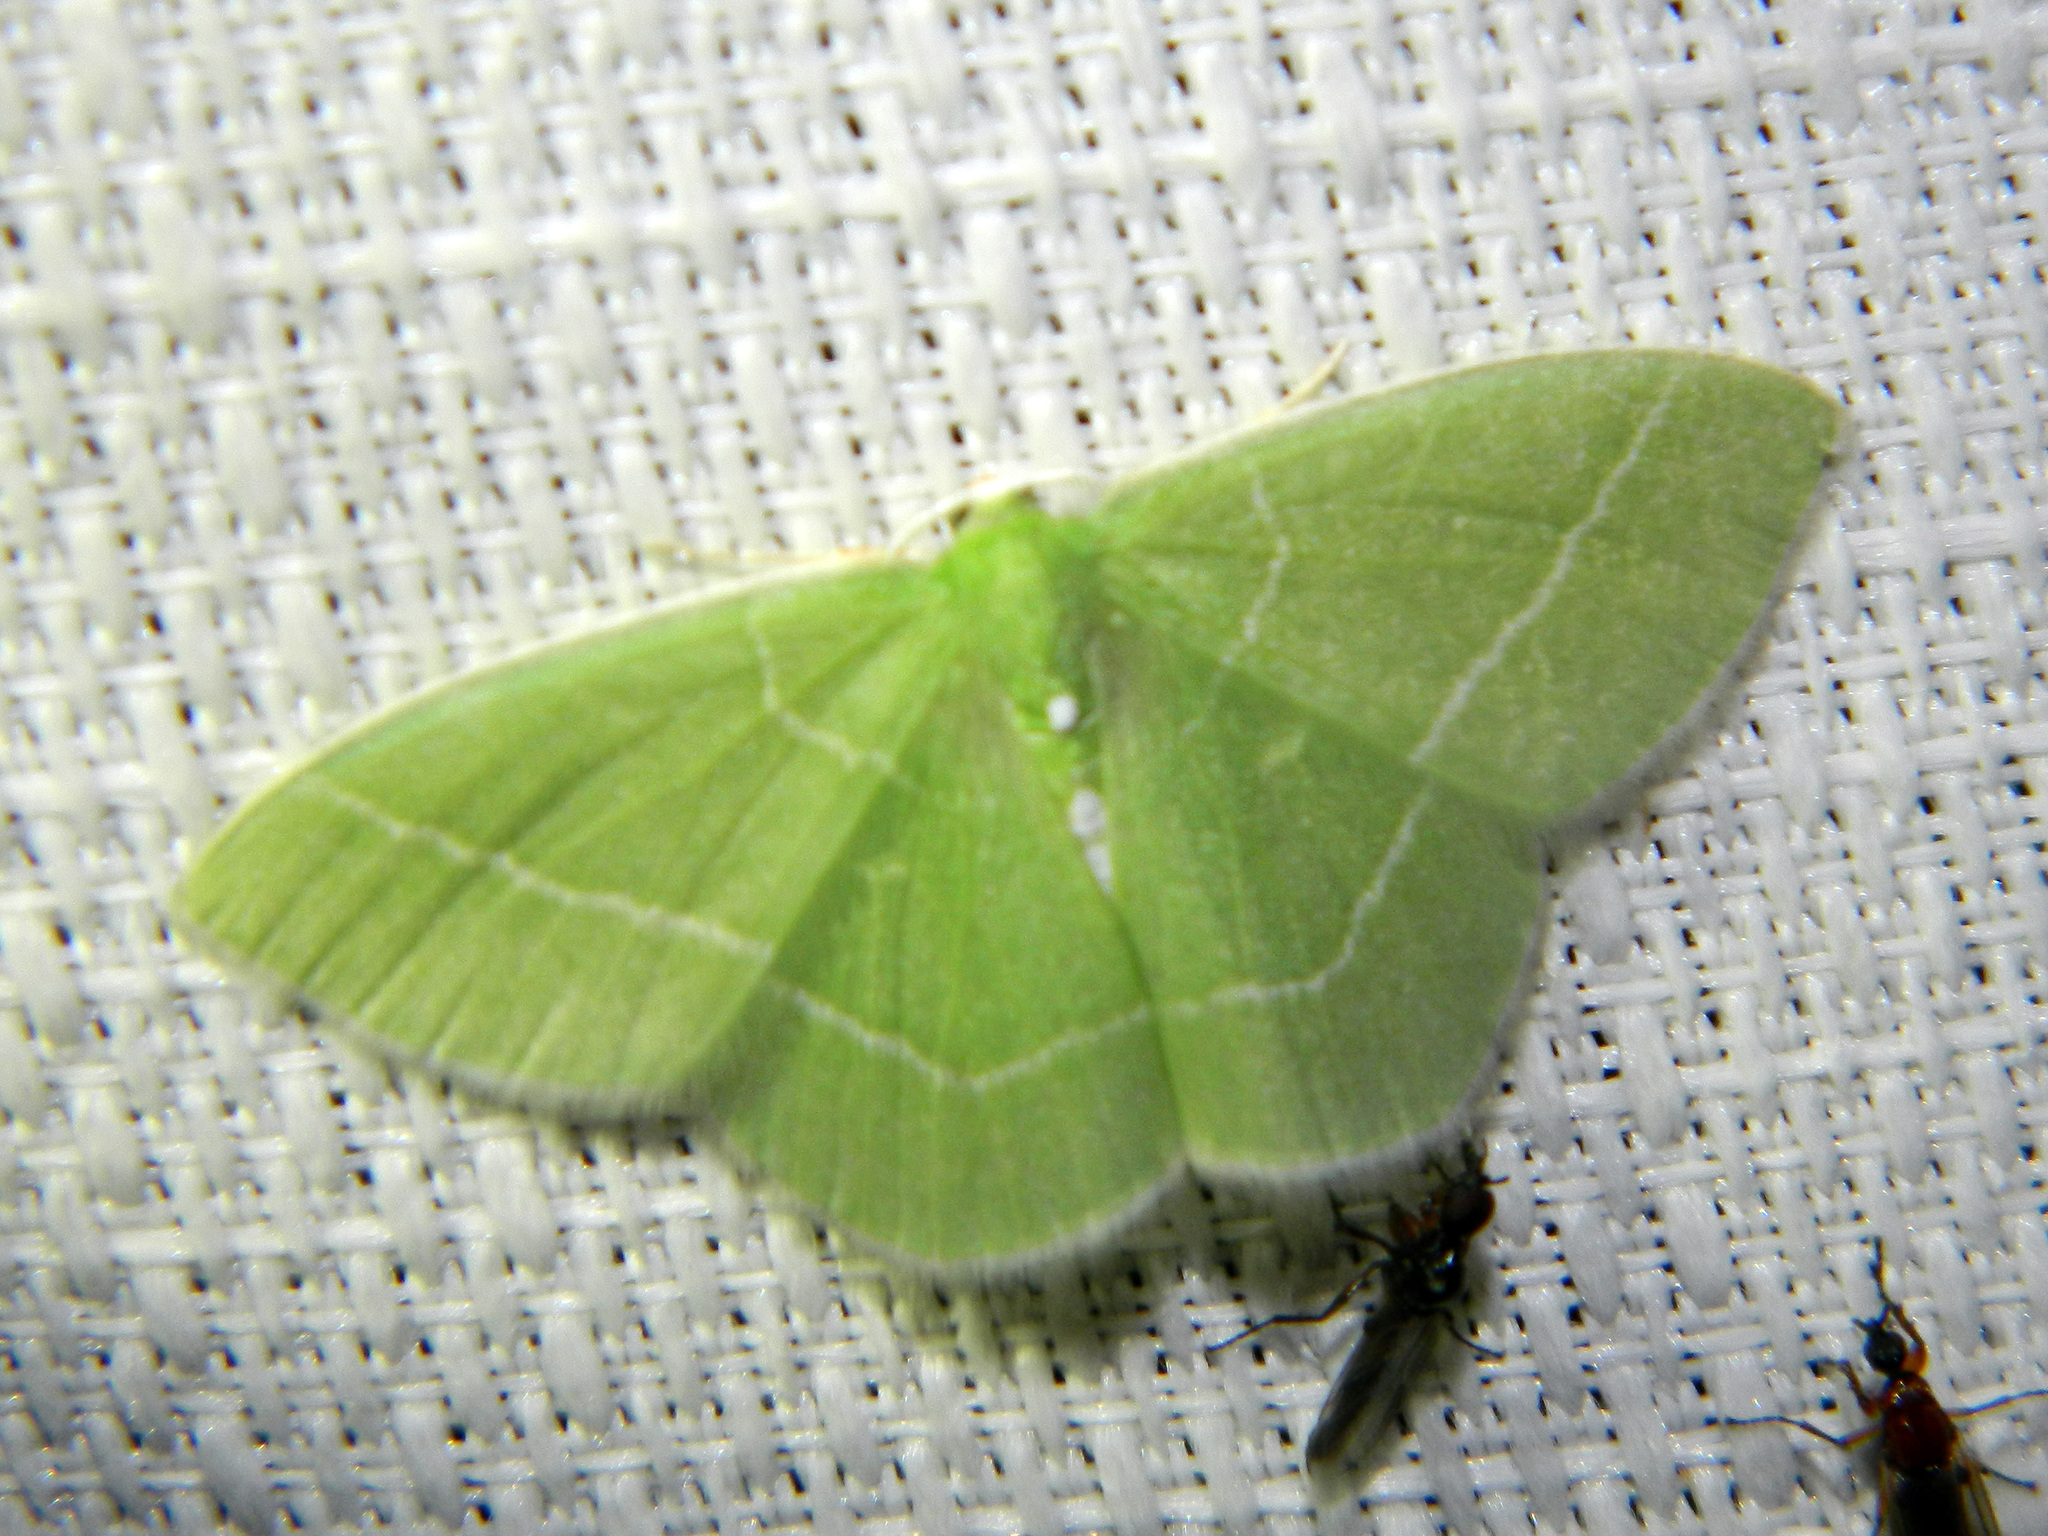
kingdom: Animalia
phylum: Arthropoda
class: Insecta
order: Lepidoptera
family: Geometridae
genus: Nemoria
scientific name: Nemoria mimosaria
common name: White-fringed emerald
